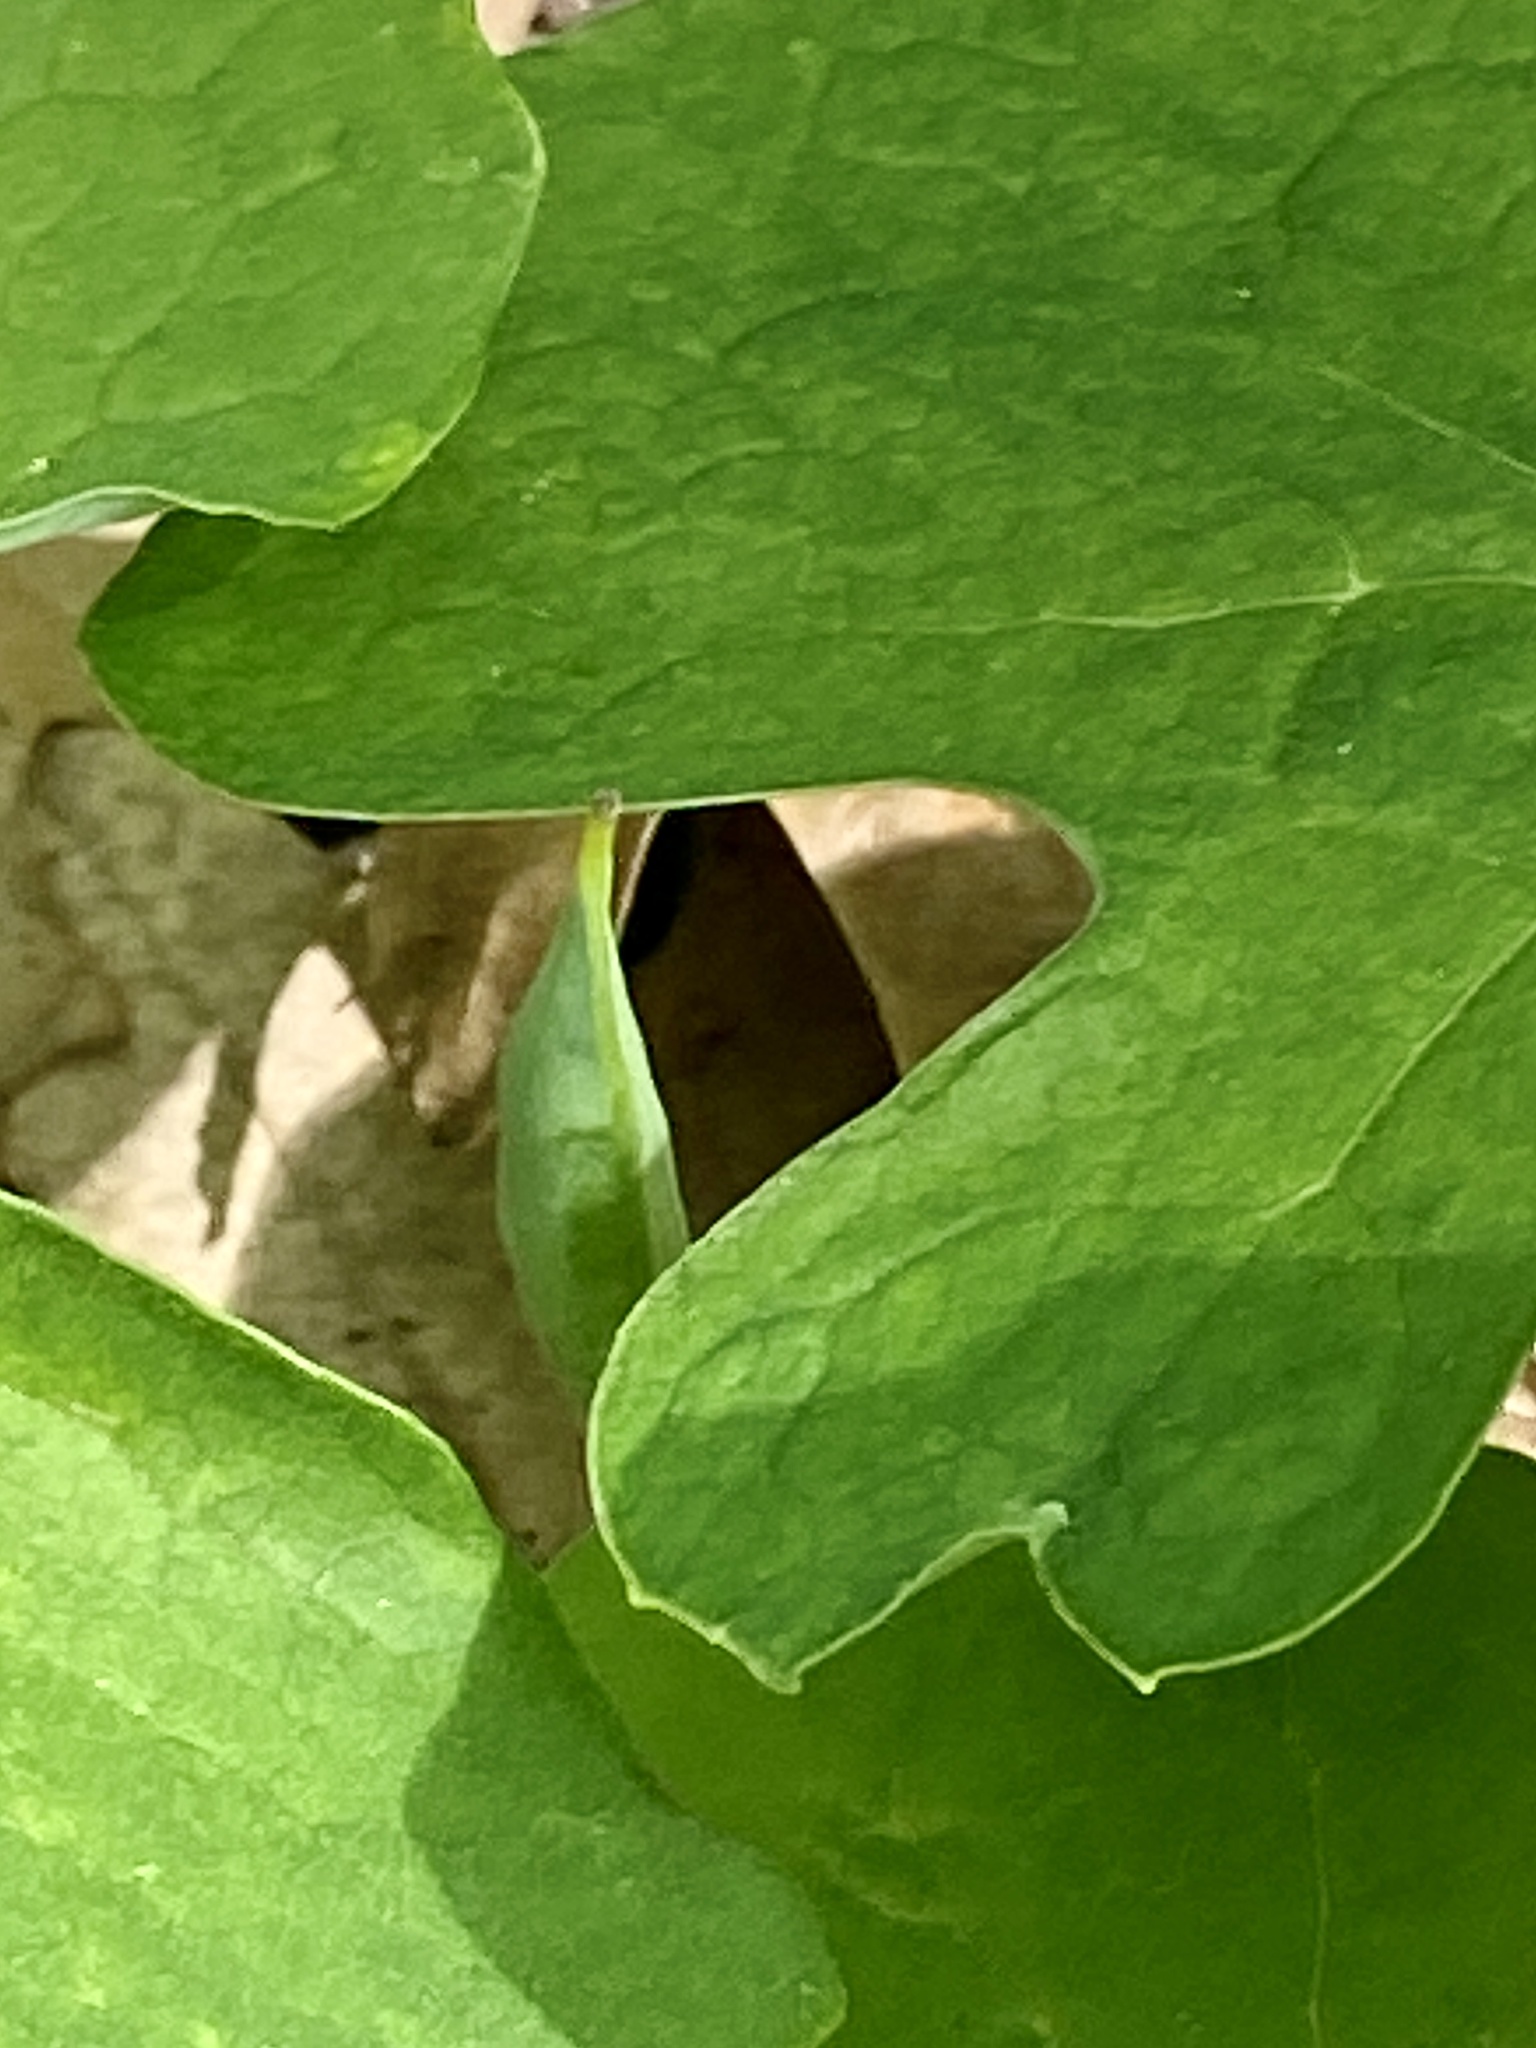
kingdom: Plantae
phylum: Tracheophyta
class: Magnoliopsida
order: Ranunculales
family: Papaveraceae
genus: Sanguinaria
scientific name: Sanguinaria canadensis
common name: Bloodroot
